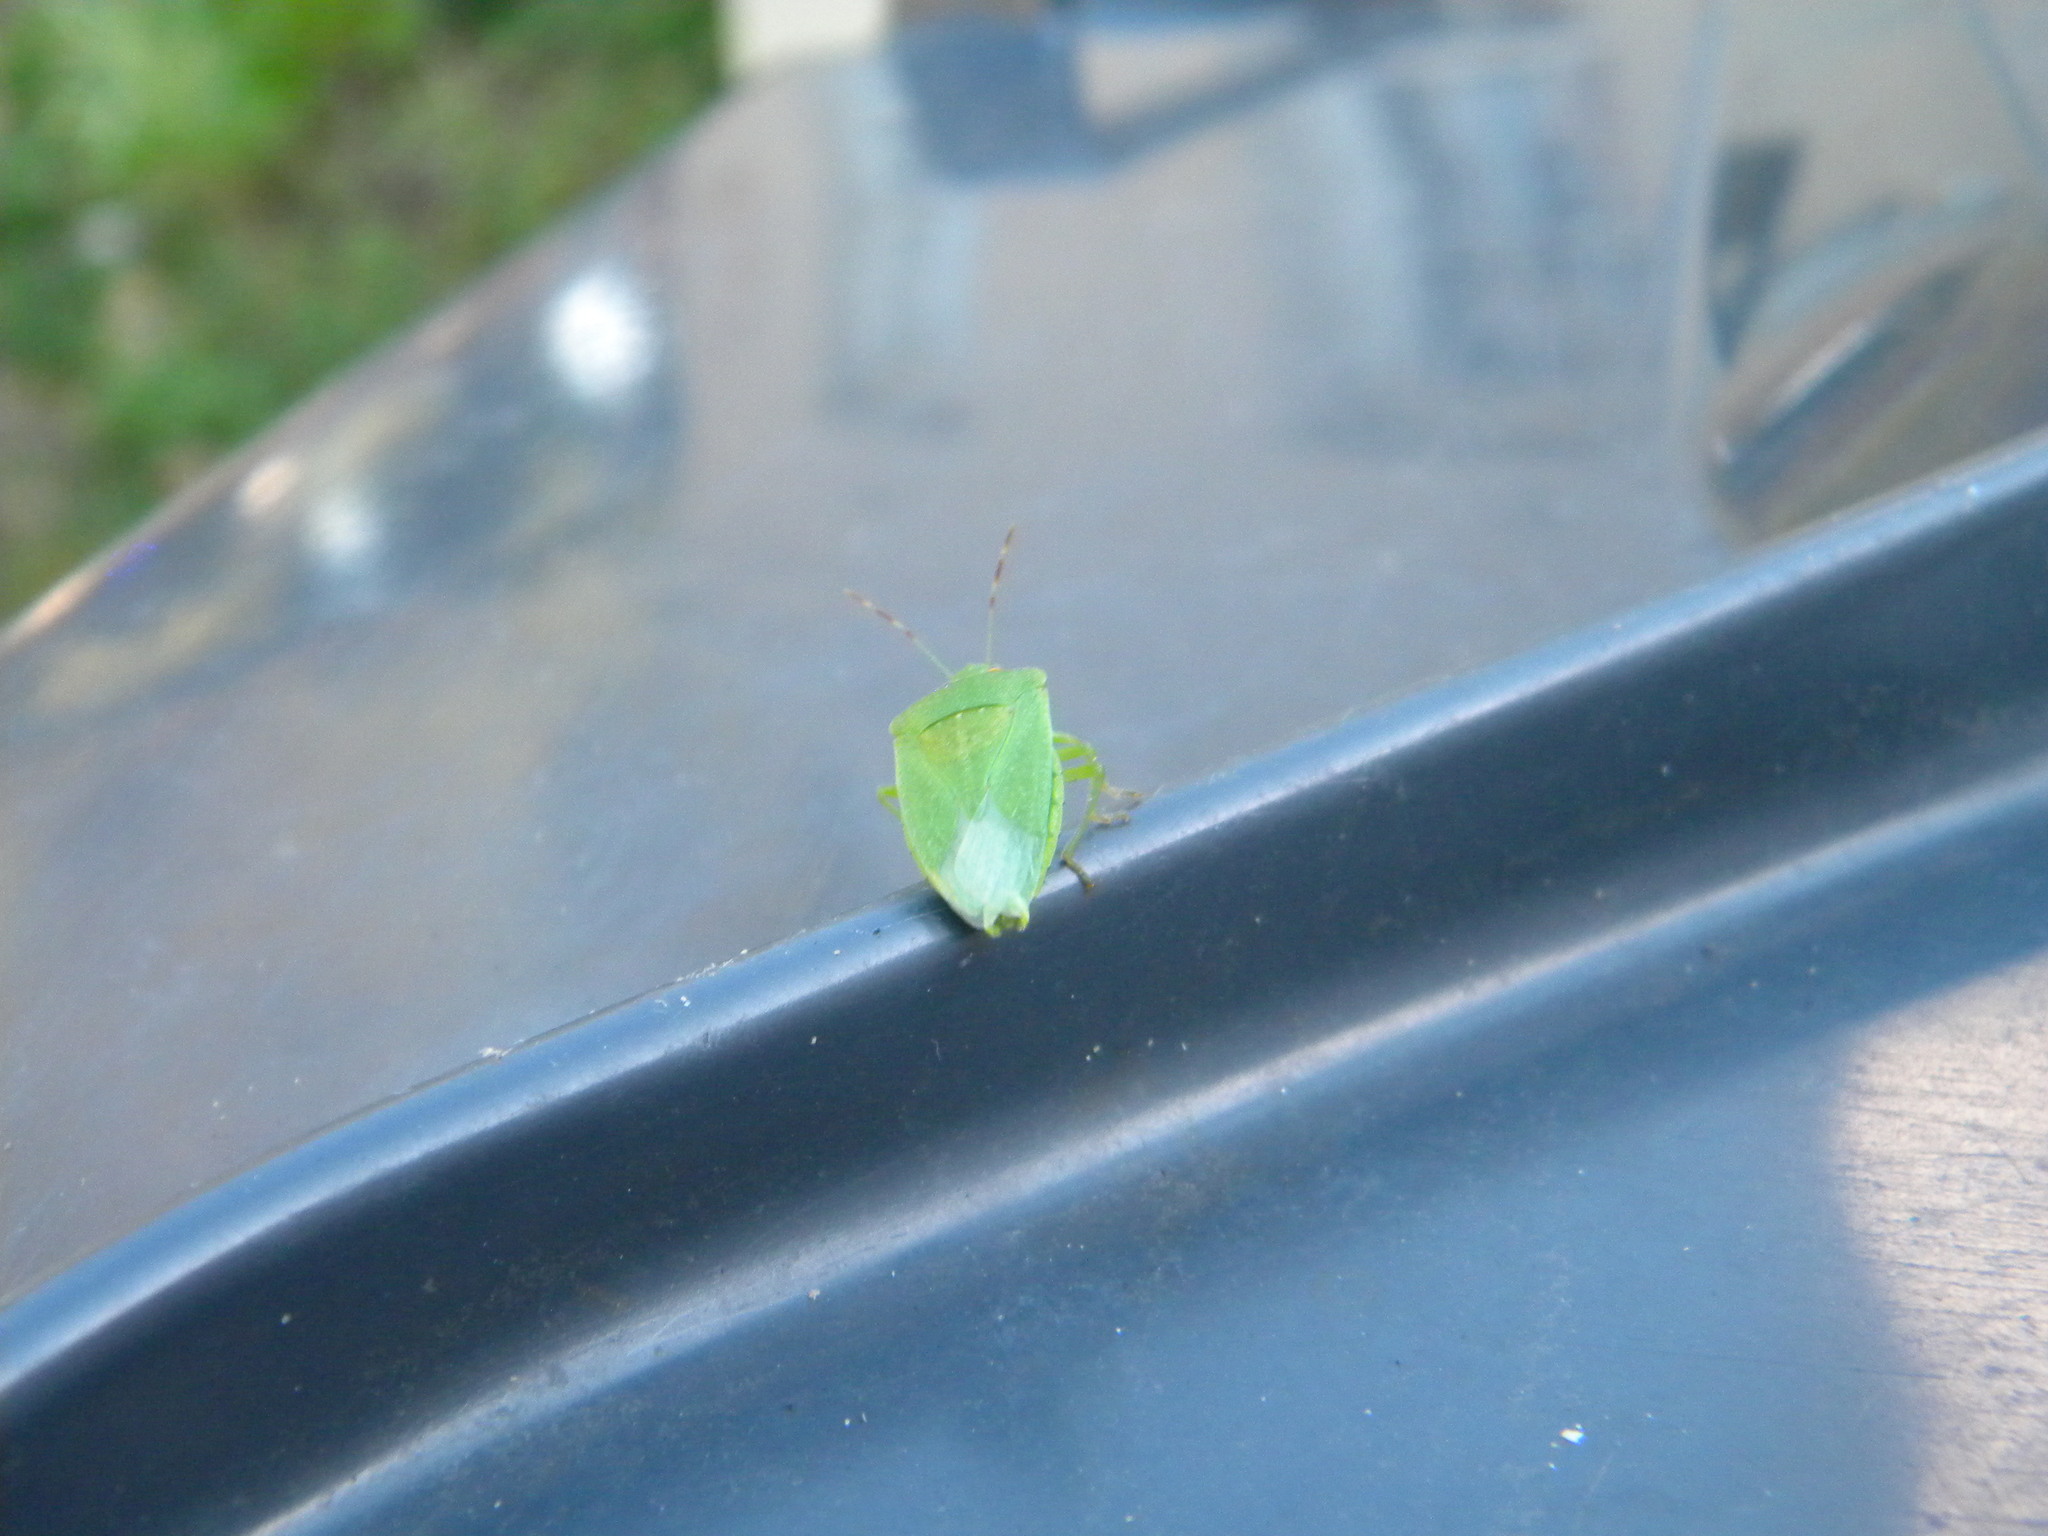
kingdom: Animalia
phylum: Arthropoda
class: Insecta
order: Hemiptera
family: Pentatomidae
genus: Nezara
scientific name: Nezara viridula
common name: Southern green stink bug
